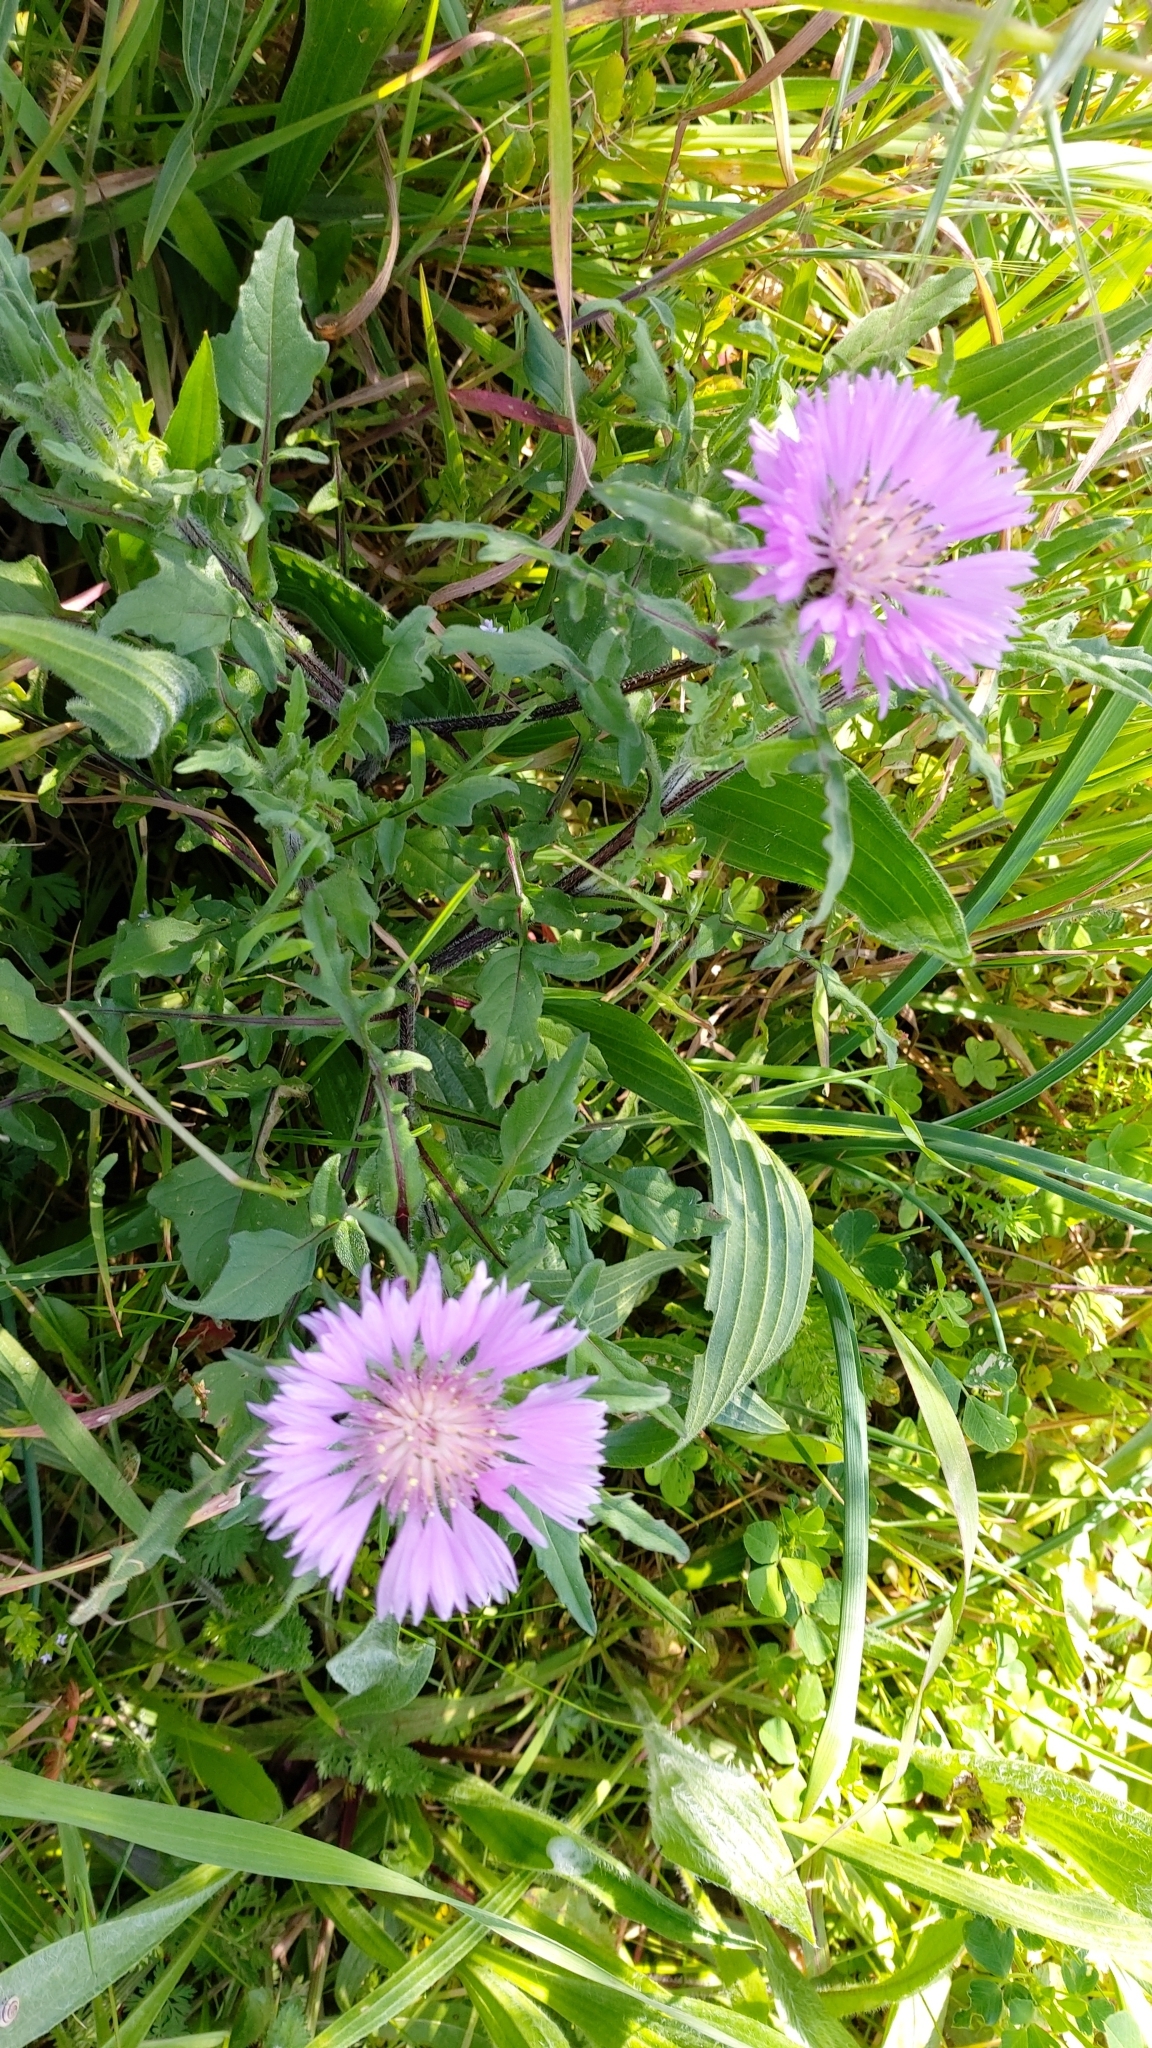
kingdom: Plantae
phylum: Tracheophyta
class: Magnoliopsida
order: Asterales
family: Asteraceae
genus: Centaurea
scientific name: Centaurea pullata
